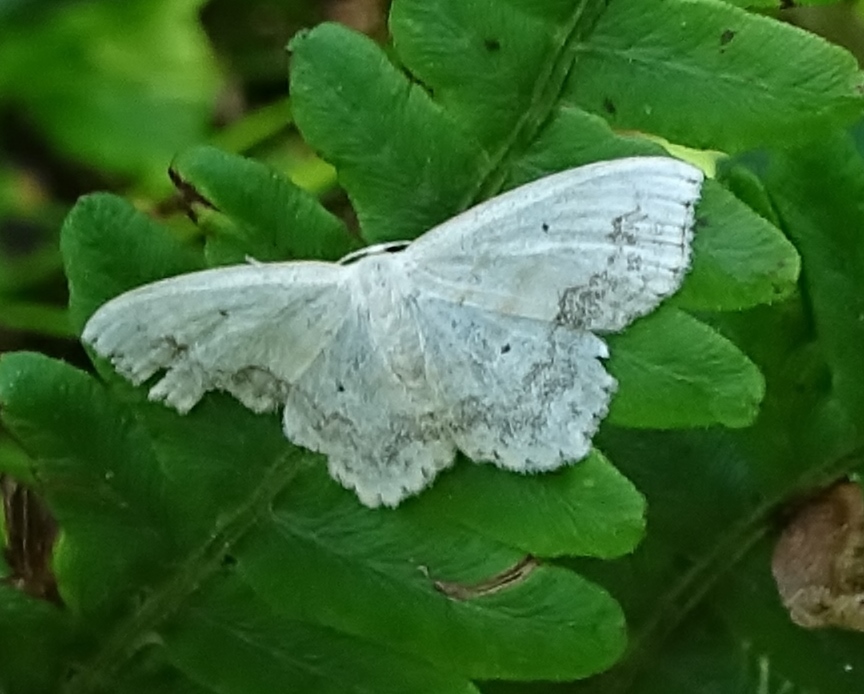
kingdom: Animalia
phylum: Arthropoda
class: Insecta
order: Lepidoptera
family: Geometridae
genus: Scopula
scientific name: Scopula limboundata
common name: Large lace border
